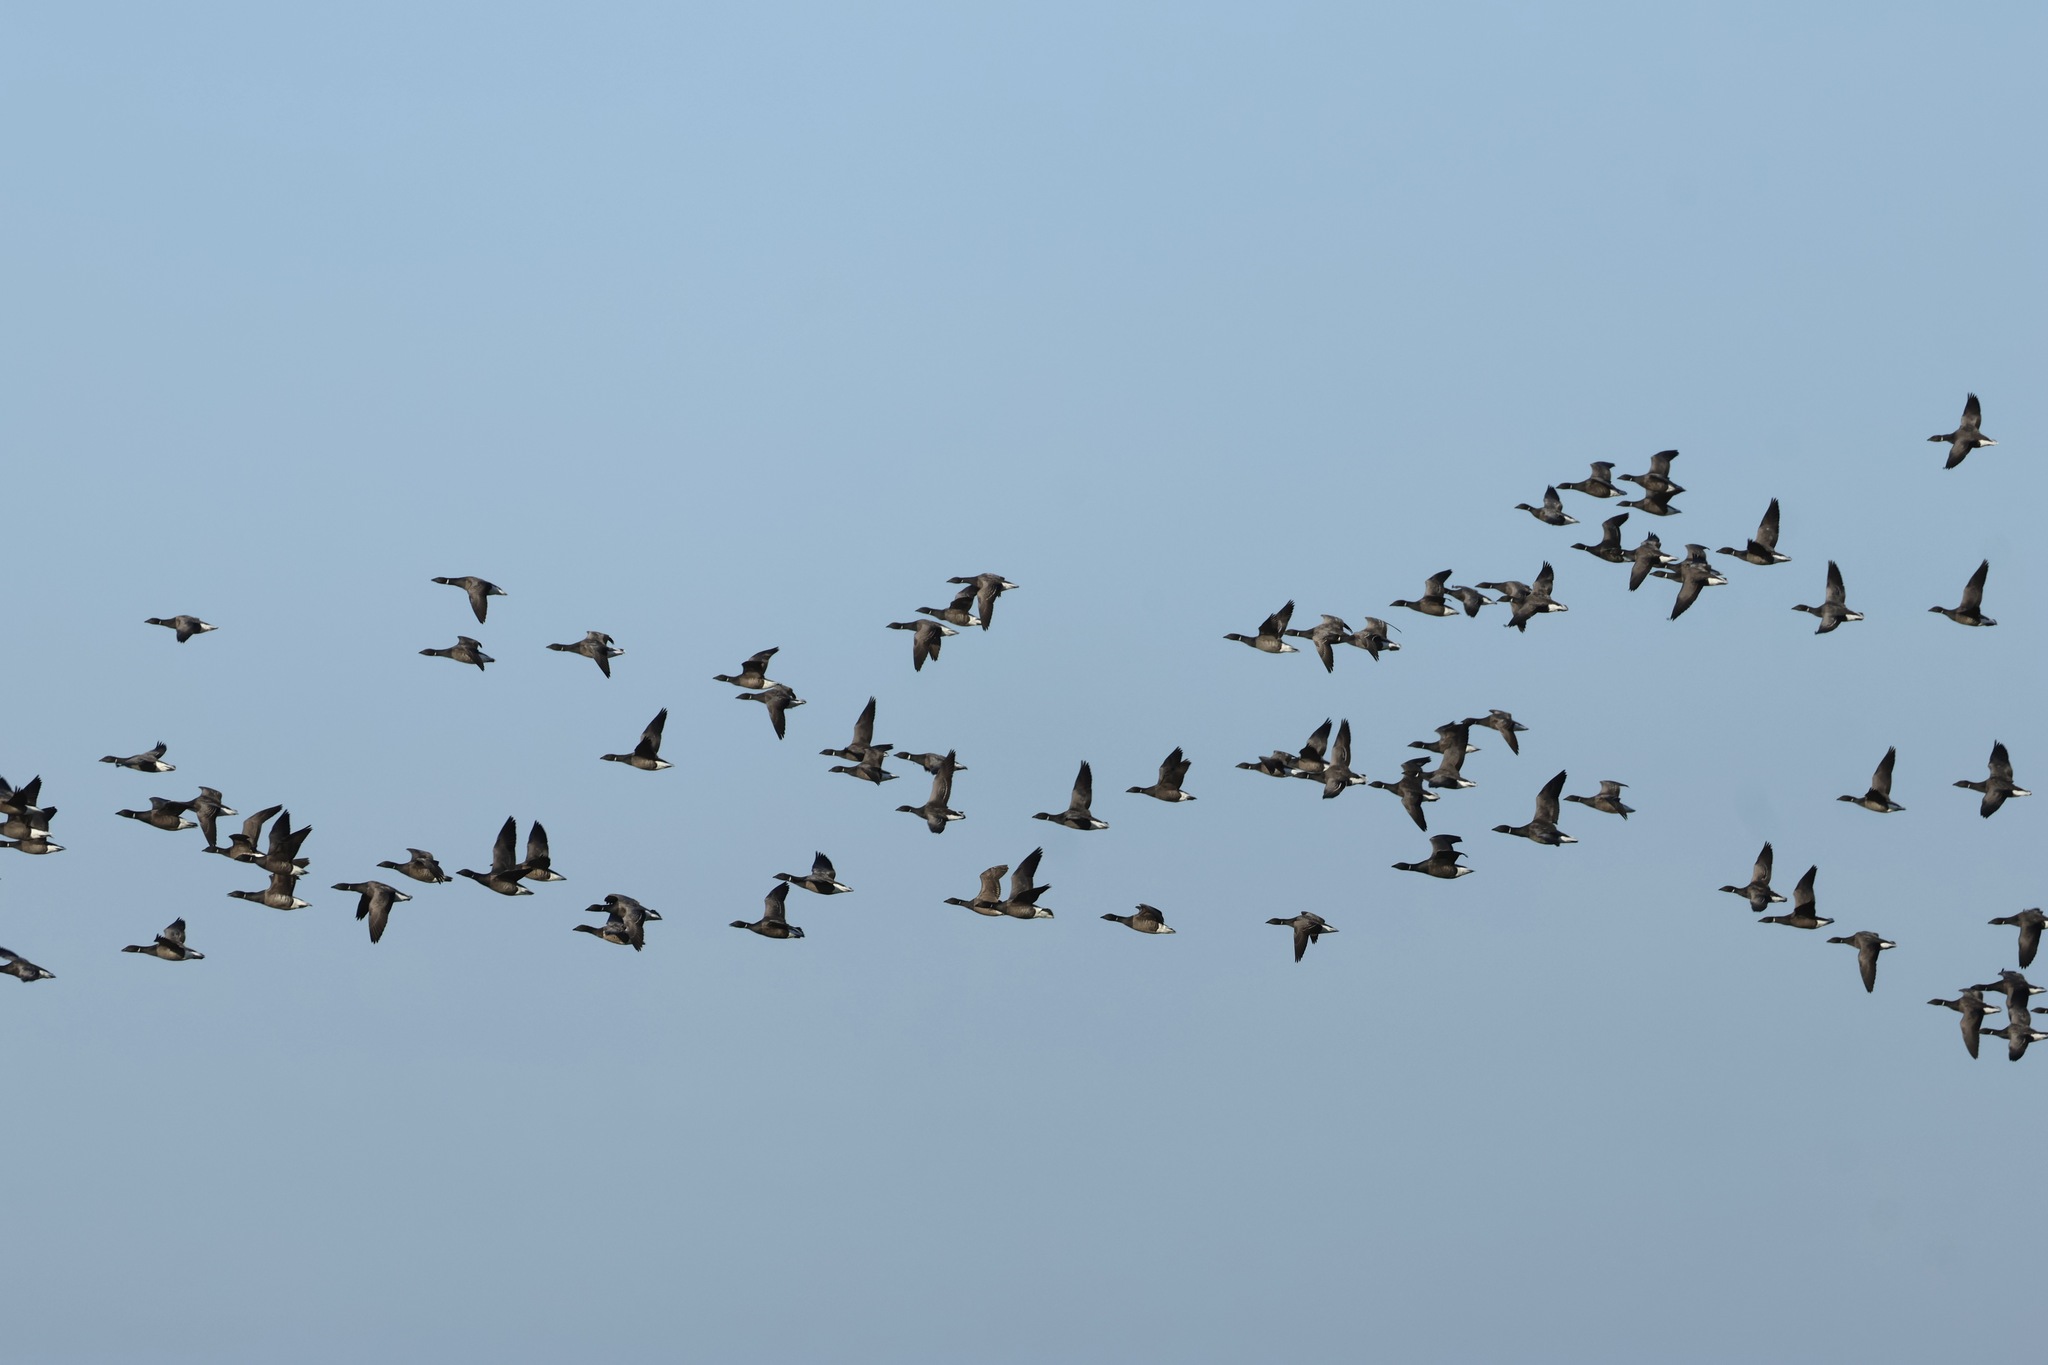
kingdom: Animalia
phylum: Chordata
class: Aves
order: Anseriformes
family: Anatidae
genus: Branta
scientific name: Branta bernicla
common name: Brant goose
